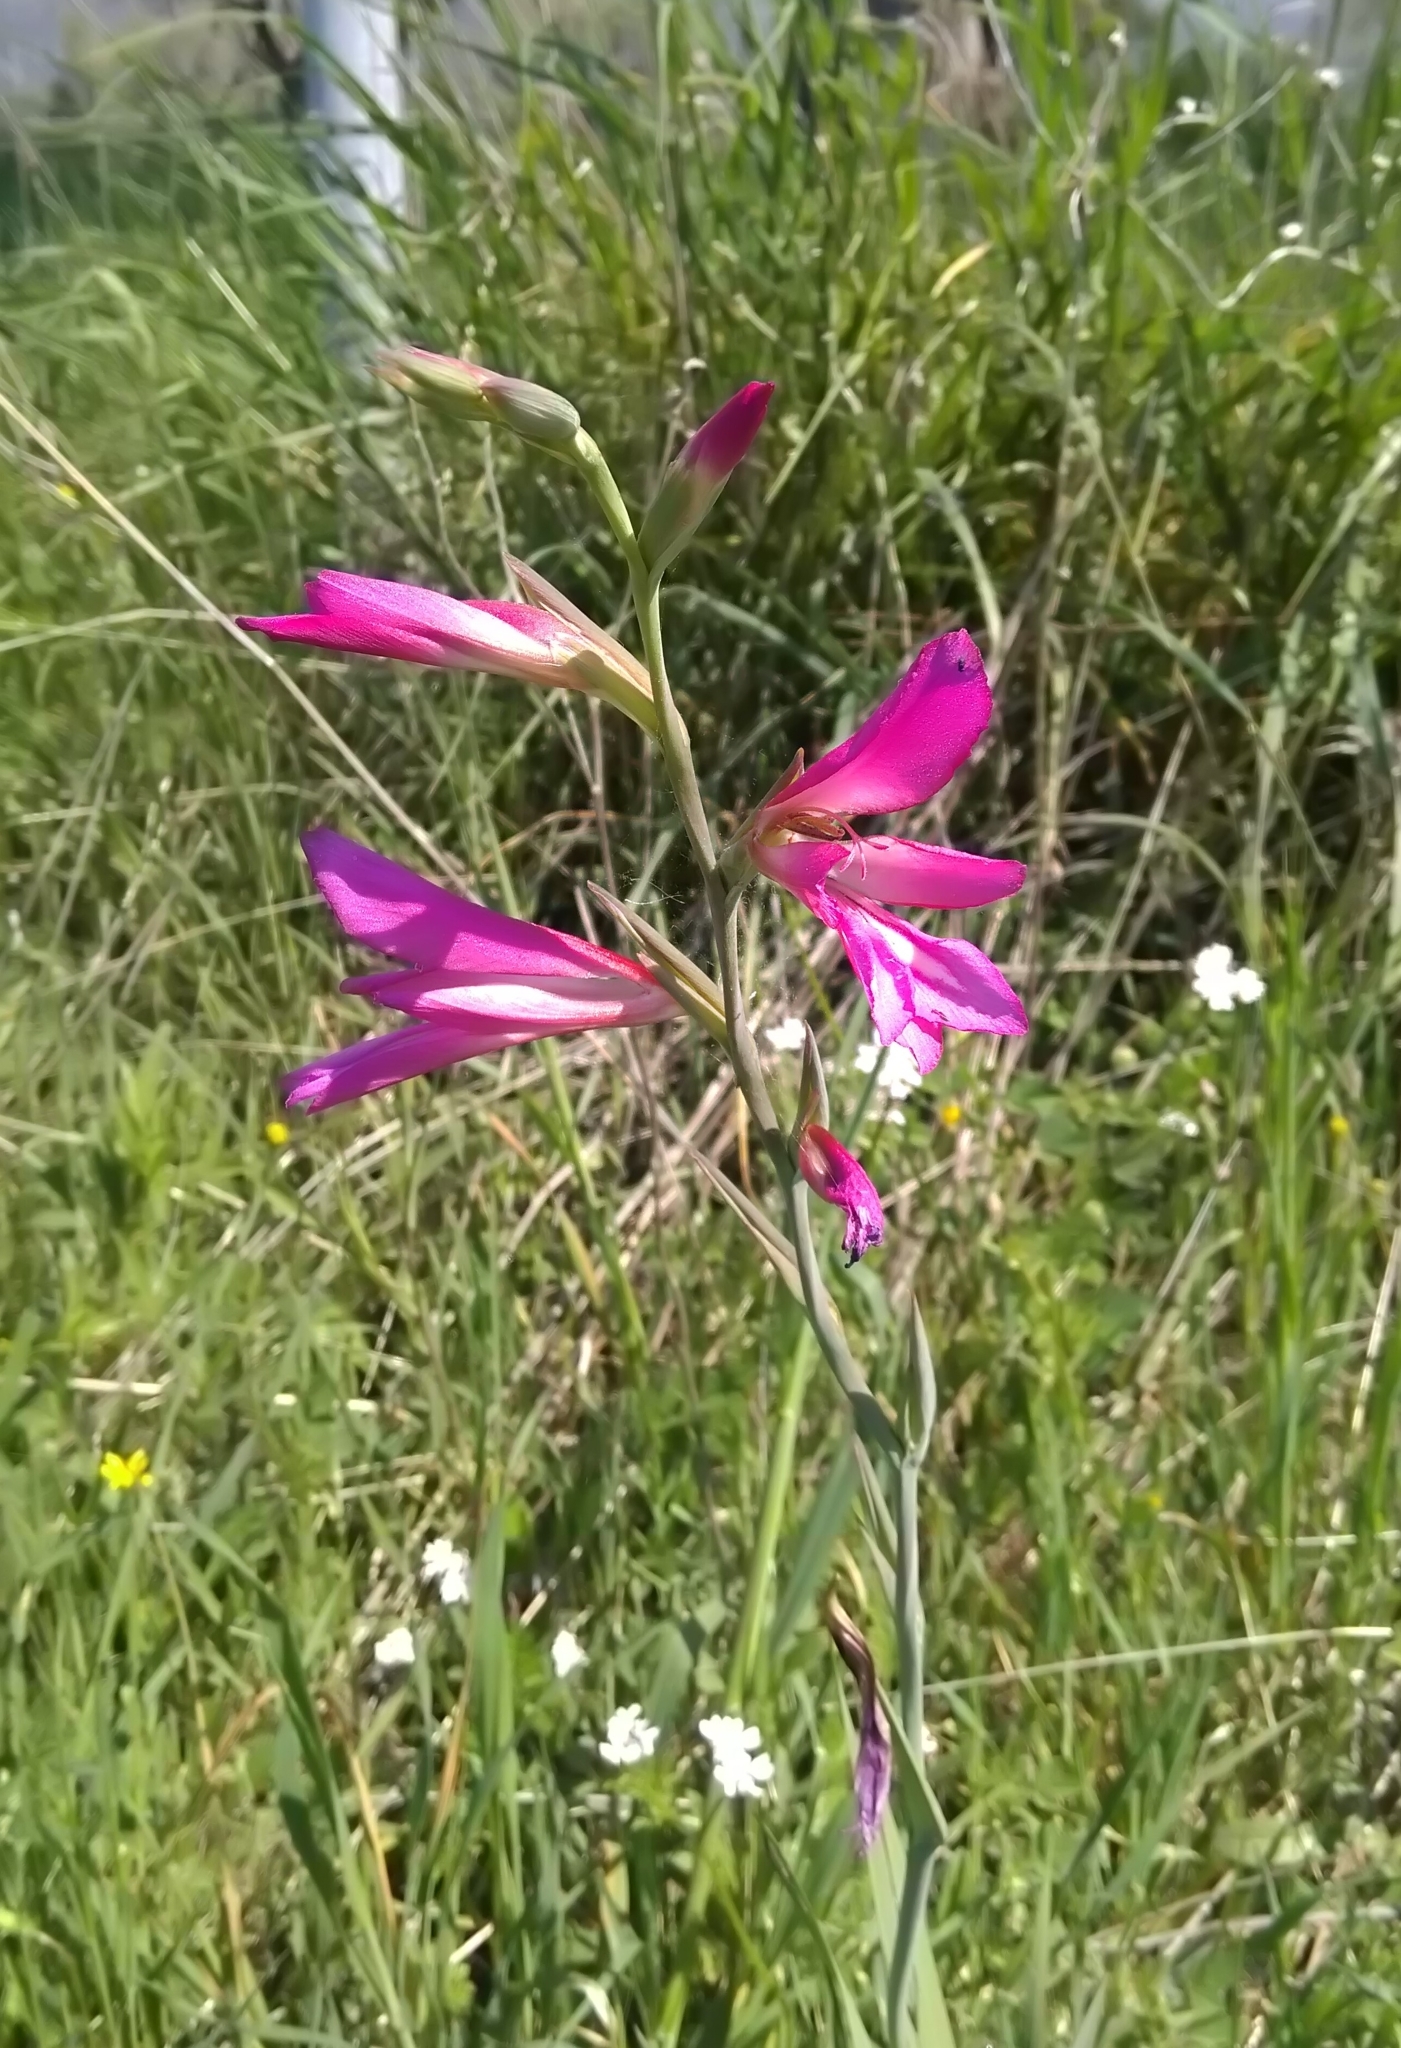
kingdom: Plantae
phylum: Tracheophyta
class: Liliopsida
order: Asparagales
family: Iridaceae
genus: Gladiolus
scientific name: Gladiolus italicus
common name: Field gladiolus
